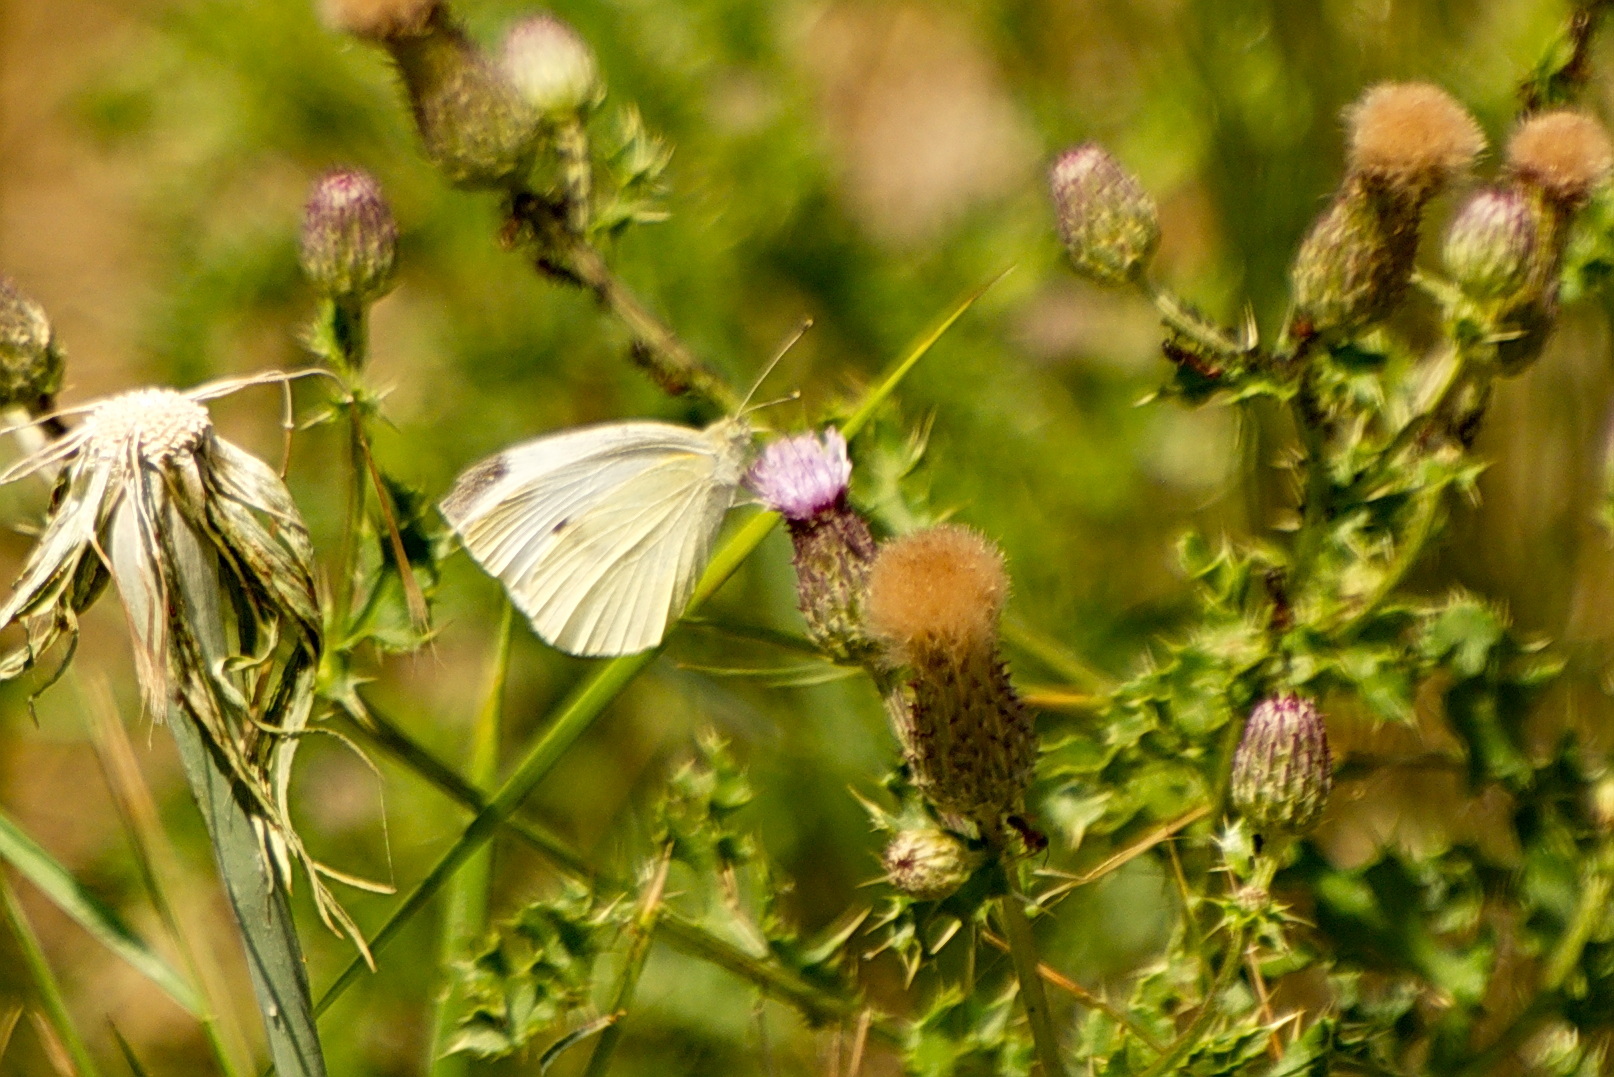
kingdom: Animalia
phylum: Arthropoda
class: Insecta
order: Lepidoptera
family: Pieridae
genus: Pieris
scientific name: Pieris rapae
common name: Small white
